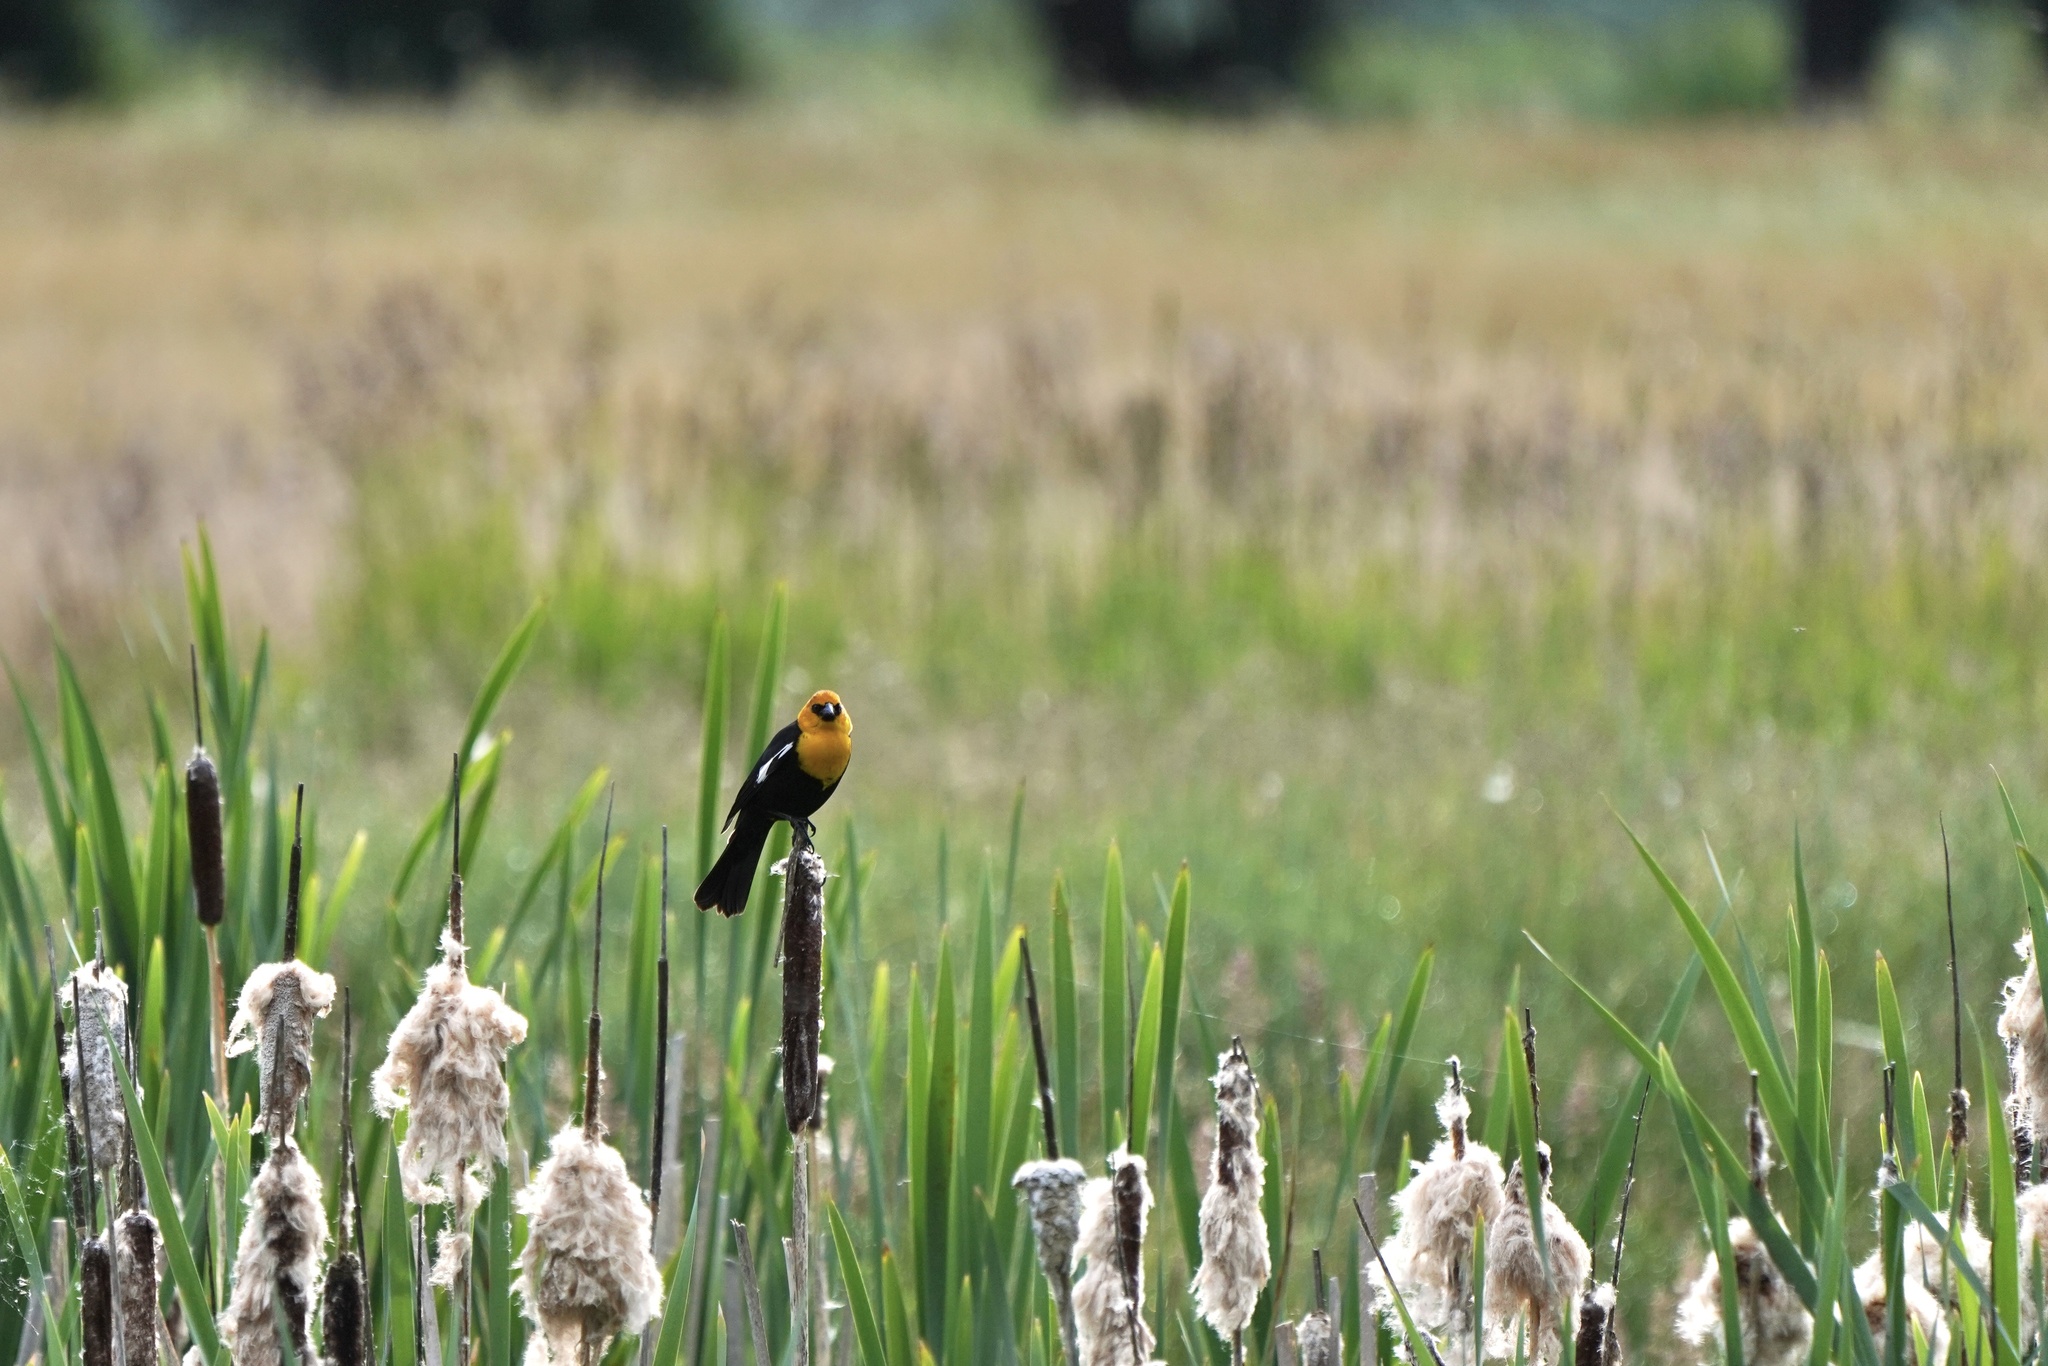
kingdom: Animalia
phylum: Chordata
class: Aves
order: Passeriformes
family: Icteridae
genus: Xanthocephalus
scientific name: Xanthocephalus xanthocephalus
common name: Yellow-headed blackbird
